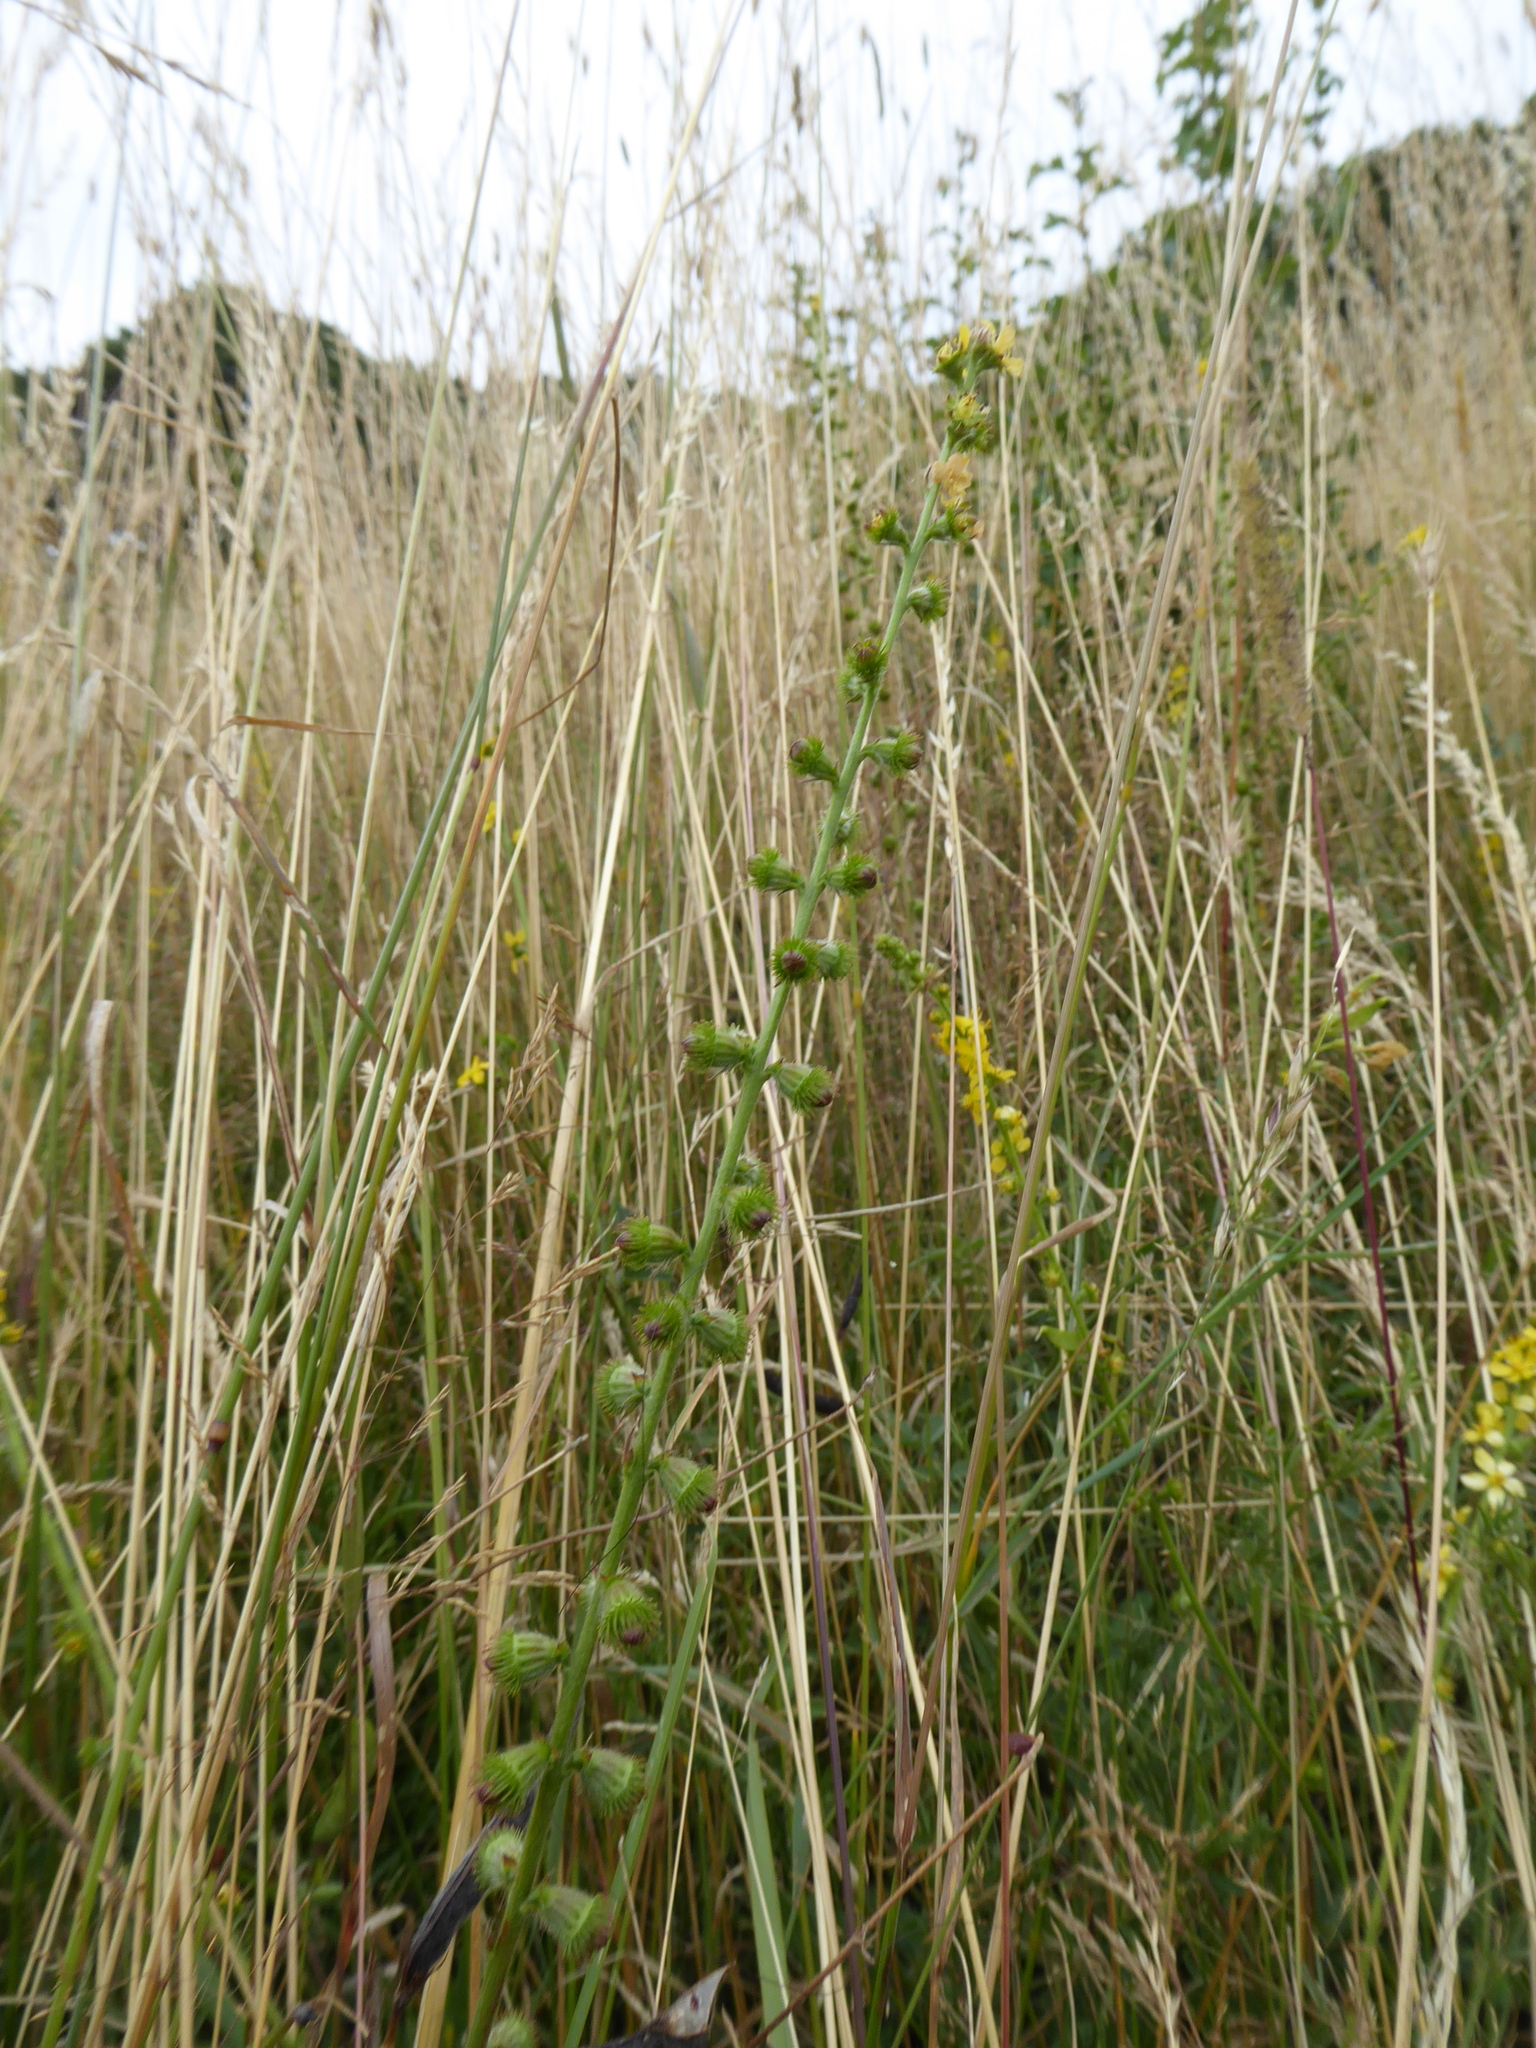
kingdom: Plantae
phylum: Tracheophyta
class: Magnoliopsida
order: Rosales
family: Rosaceae
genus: Agrimonia
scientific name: Agrimonia eupatoria
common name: Agrimony
